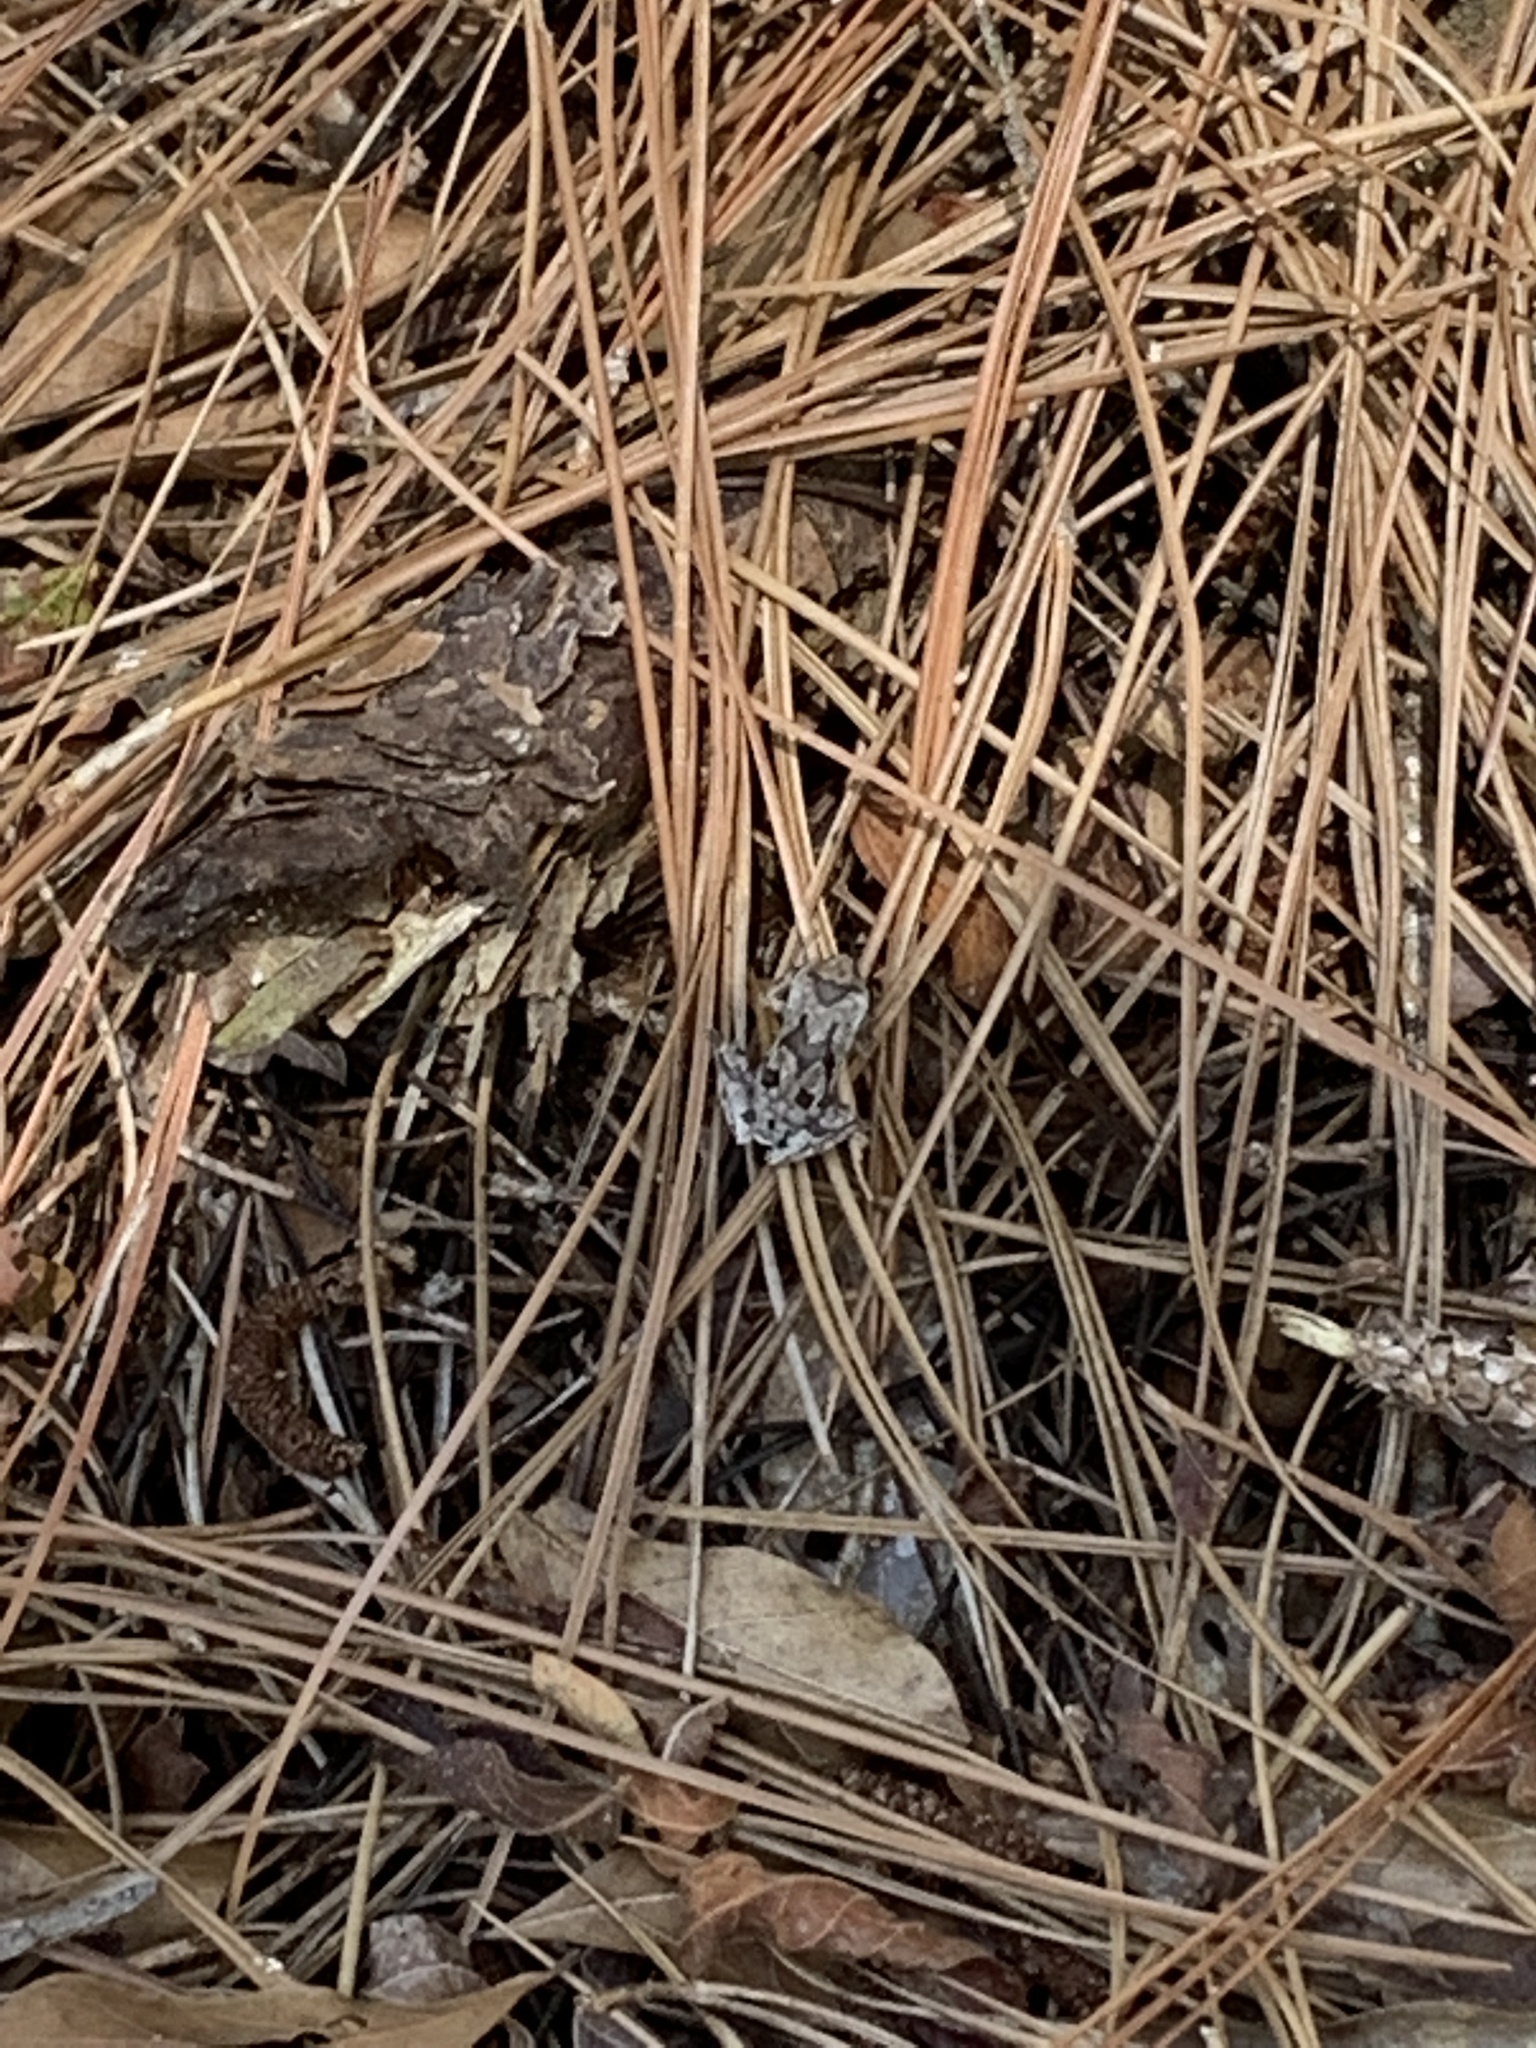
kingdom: Animalia
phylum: Chordata
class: Amphibia
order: Anura
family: Hylidae
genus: Hyla
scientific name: Hyla femoralis
